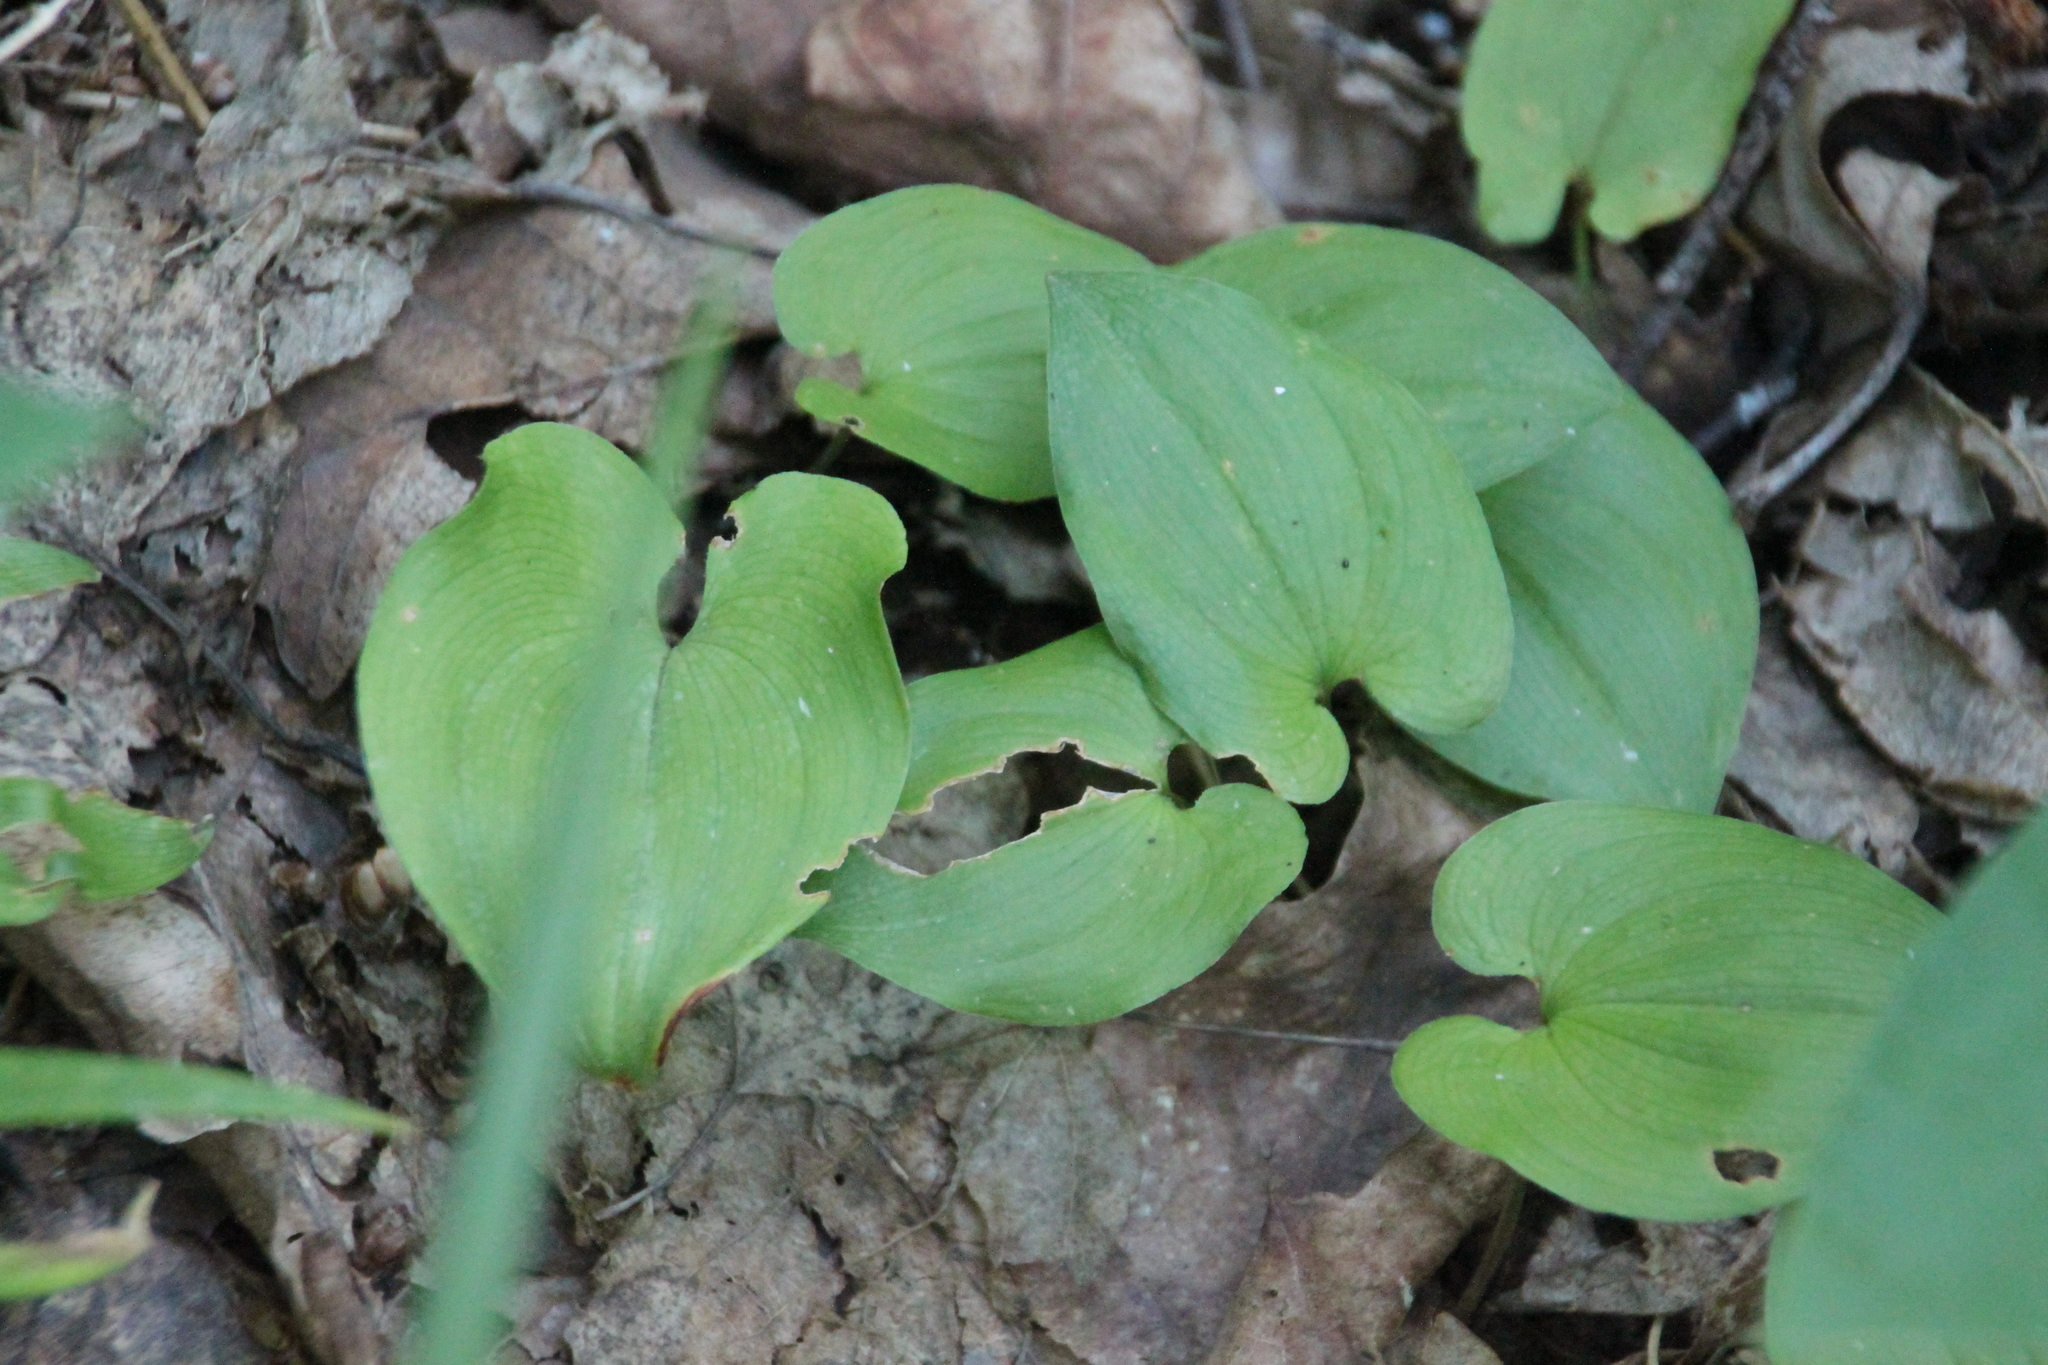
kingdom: Plantae
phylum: Tracheophyta
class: Liliopsida
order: Asparagales
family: Asparagaceae
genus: Maianthemum
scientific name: Maianthemum bifolium
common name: May lily
